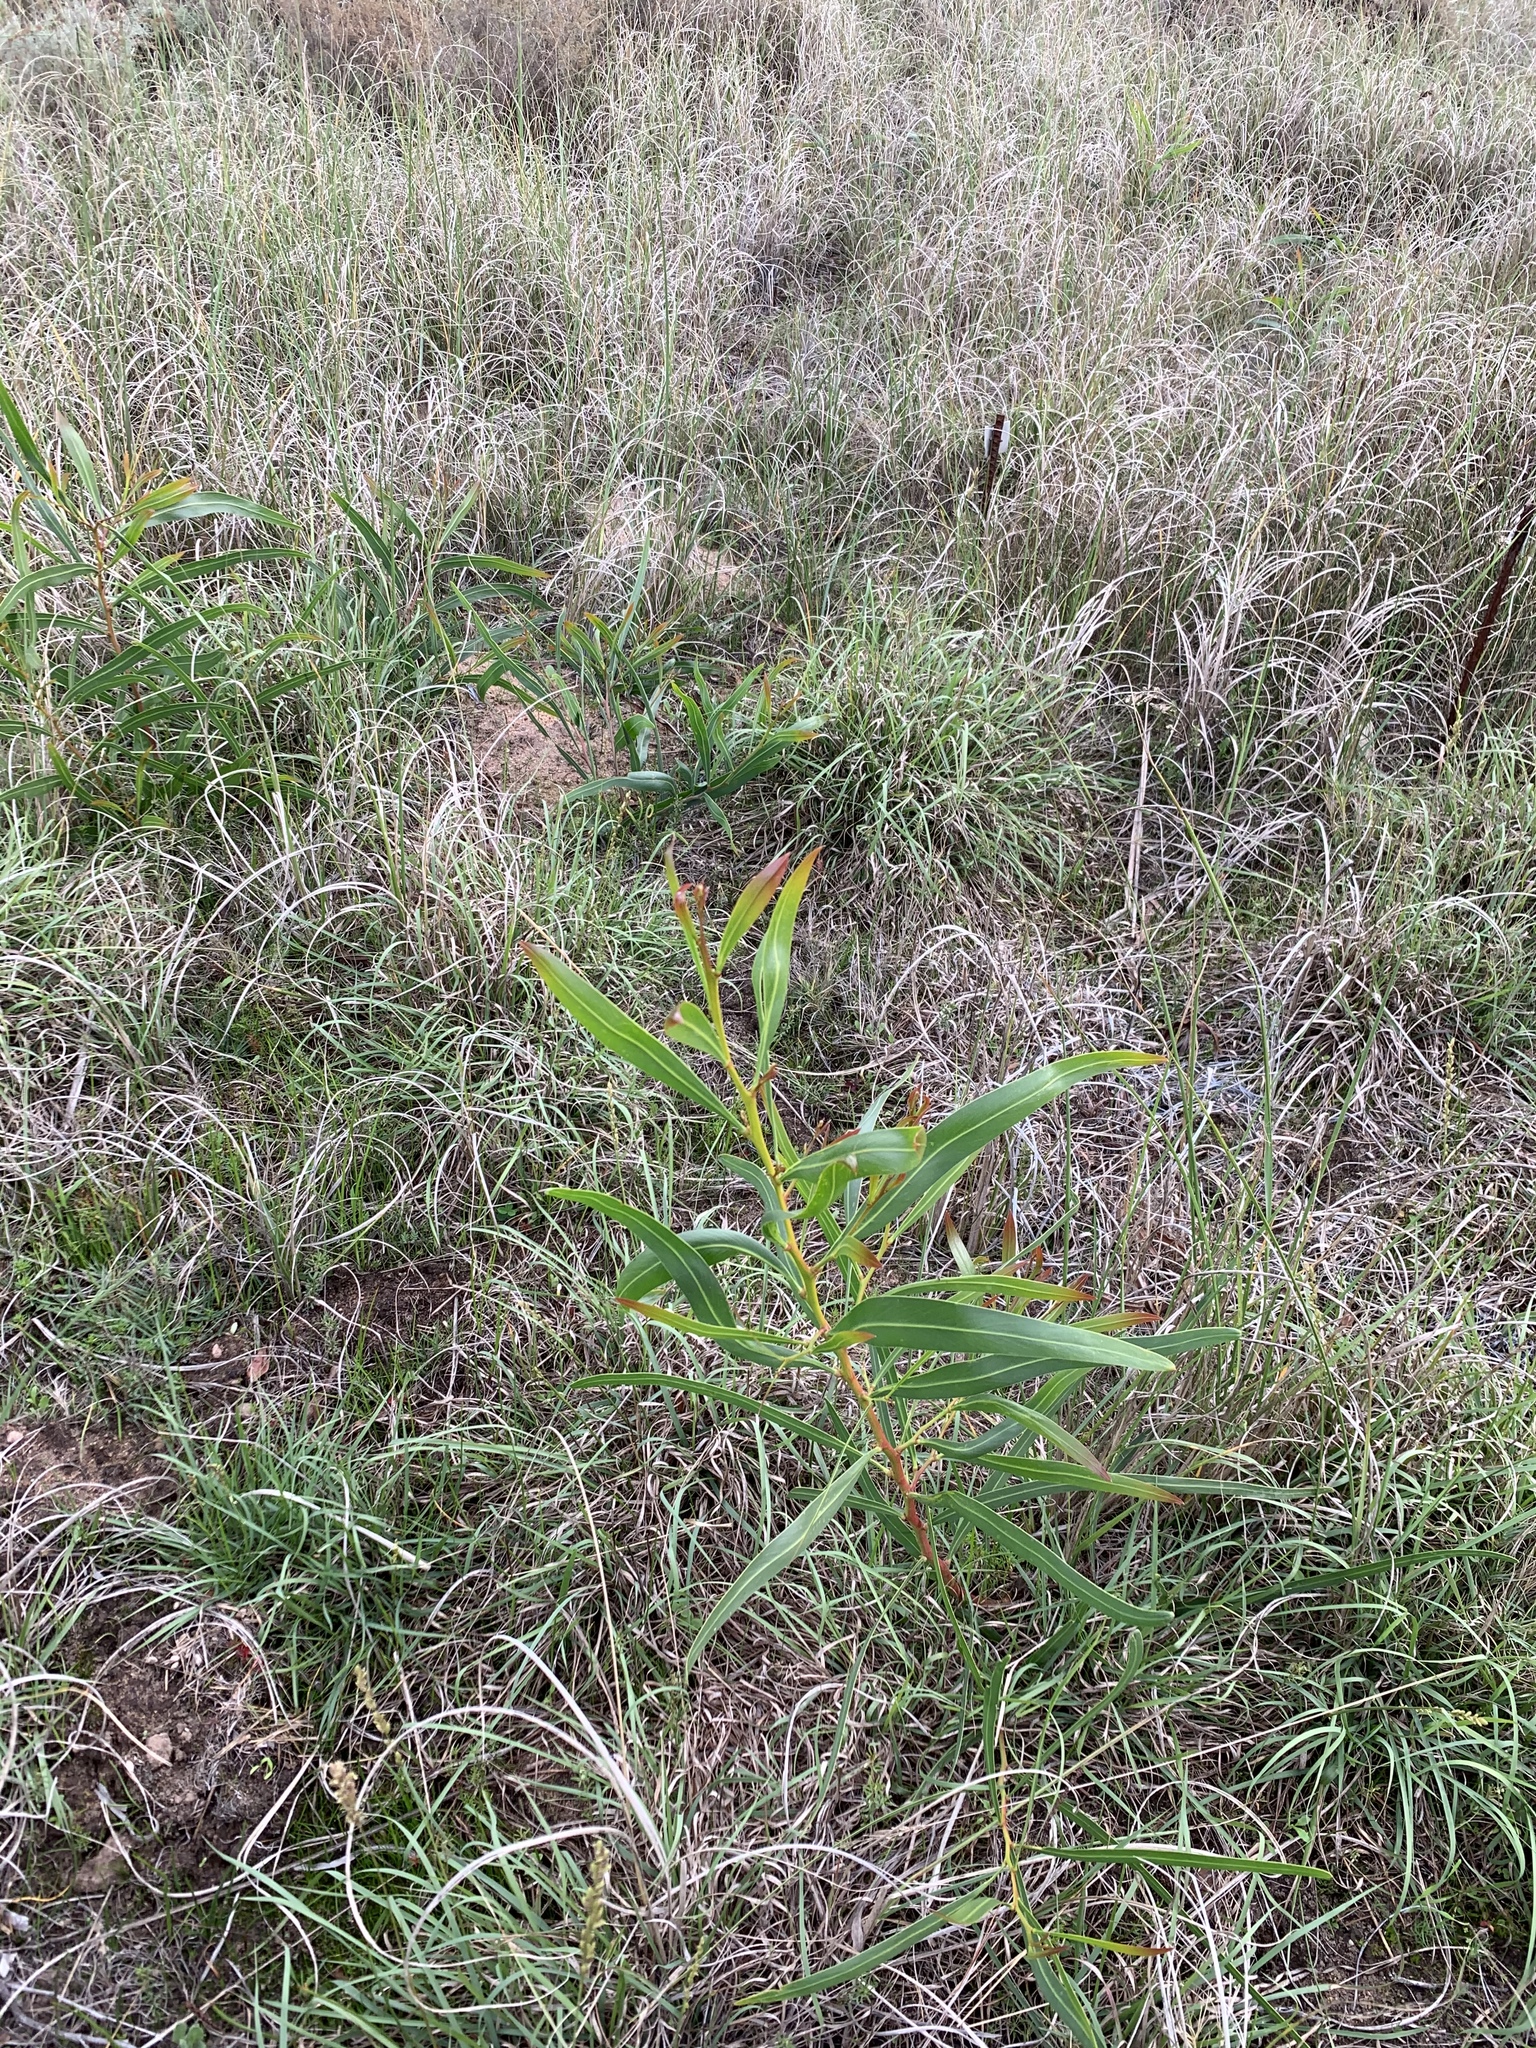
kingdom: Plantae
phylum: Tracheophyta
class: Magnoliopsida
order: Fabales
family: Fabaceae
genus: Acacia
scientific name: Acacia saligna
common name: Orange wattle
